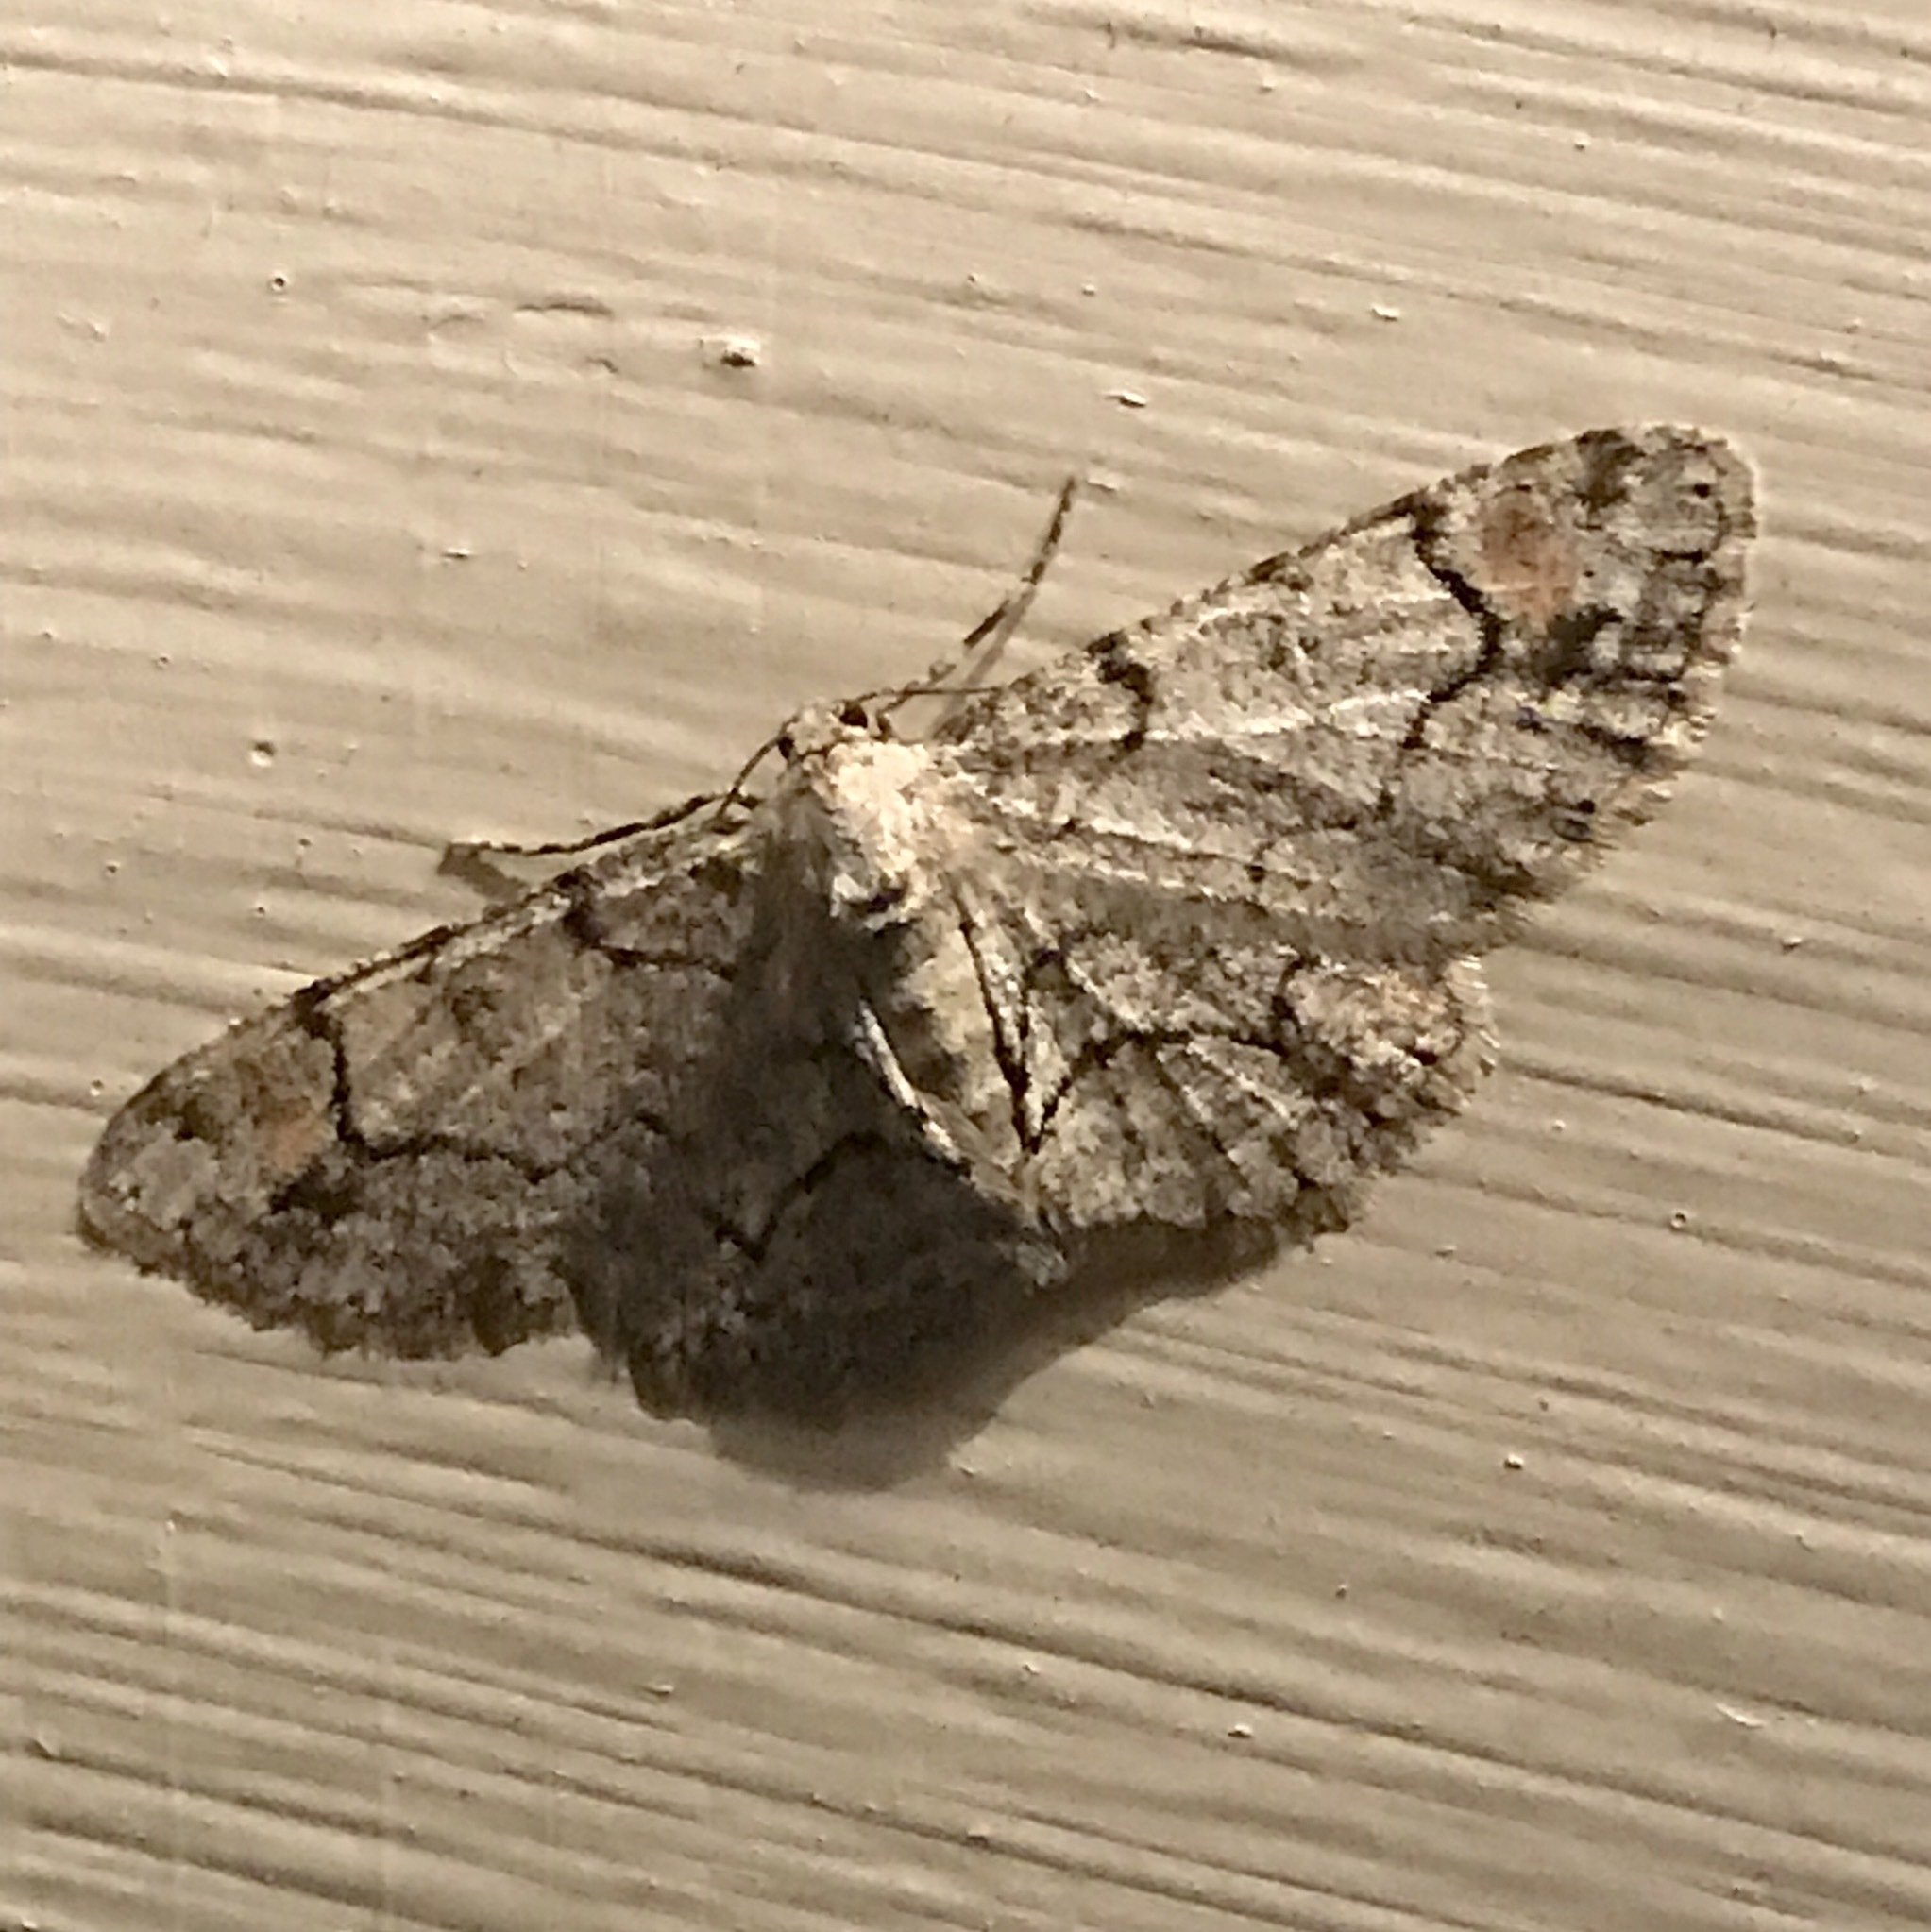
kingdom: Animalia
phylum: Arthropoda
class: Insecta
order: Lepidoptera
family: Geometridae
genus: Iridopsis
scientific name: Iridopsis larvaria
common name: Bent-line gray
